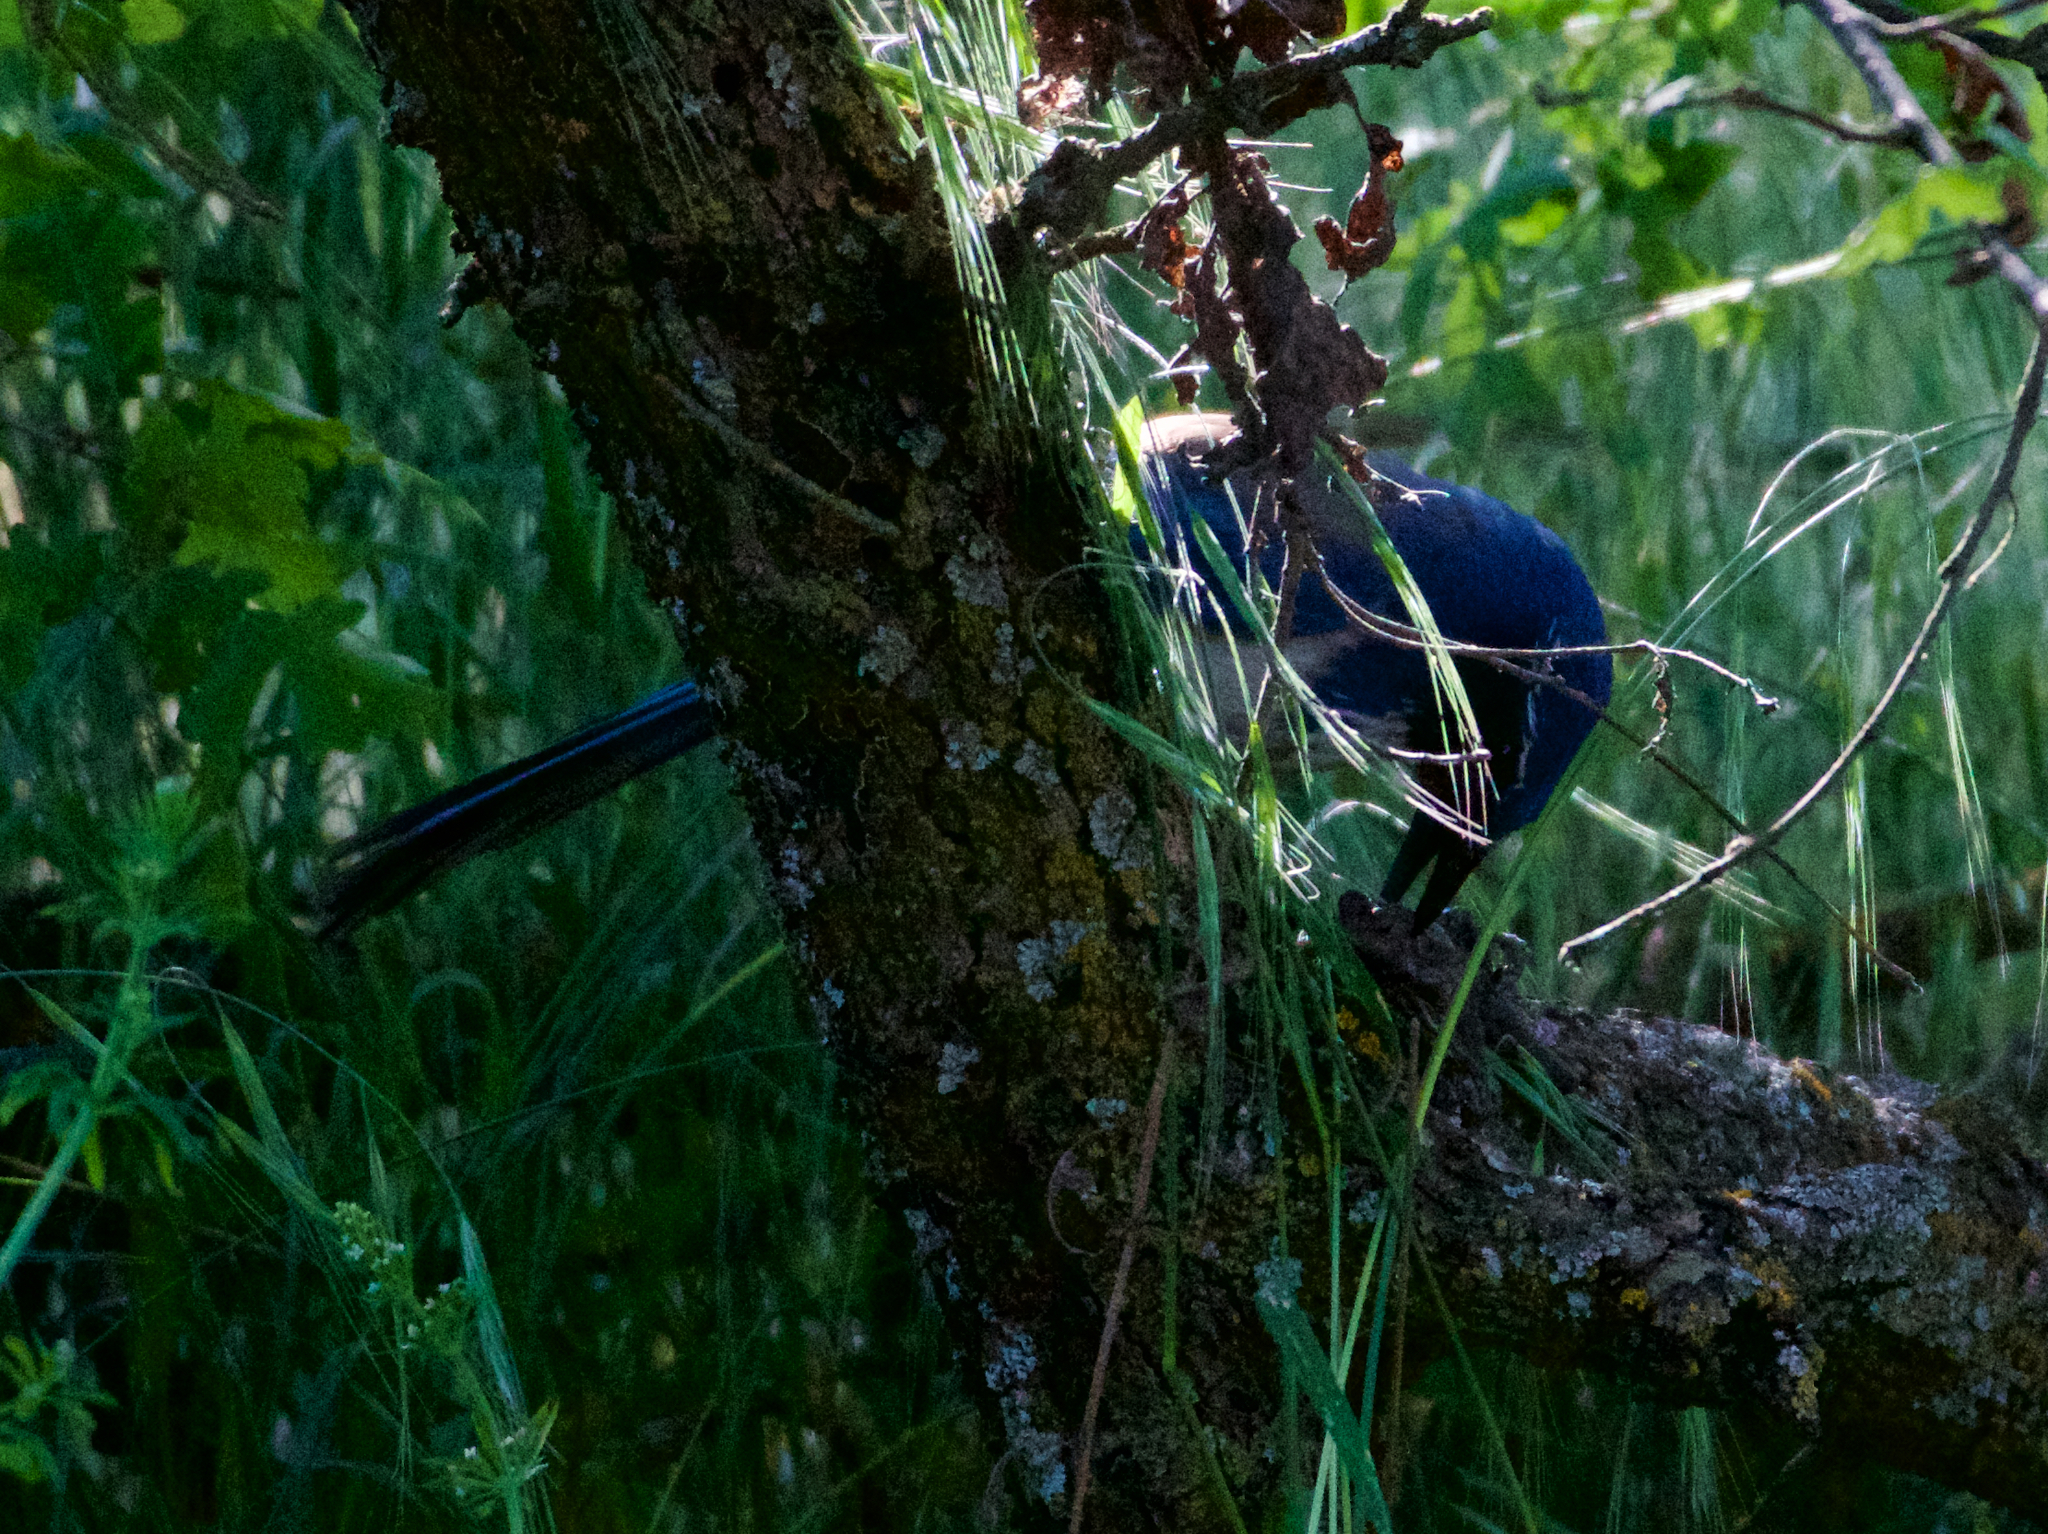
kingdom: Animalia
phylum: Chordata
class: Aves
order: Passeriformes
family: Corvidae
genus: Aphelocoma
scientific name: Aphelocoma californica
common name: California scrub-jay
